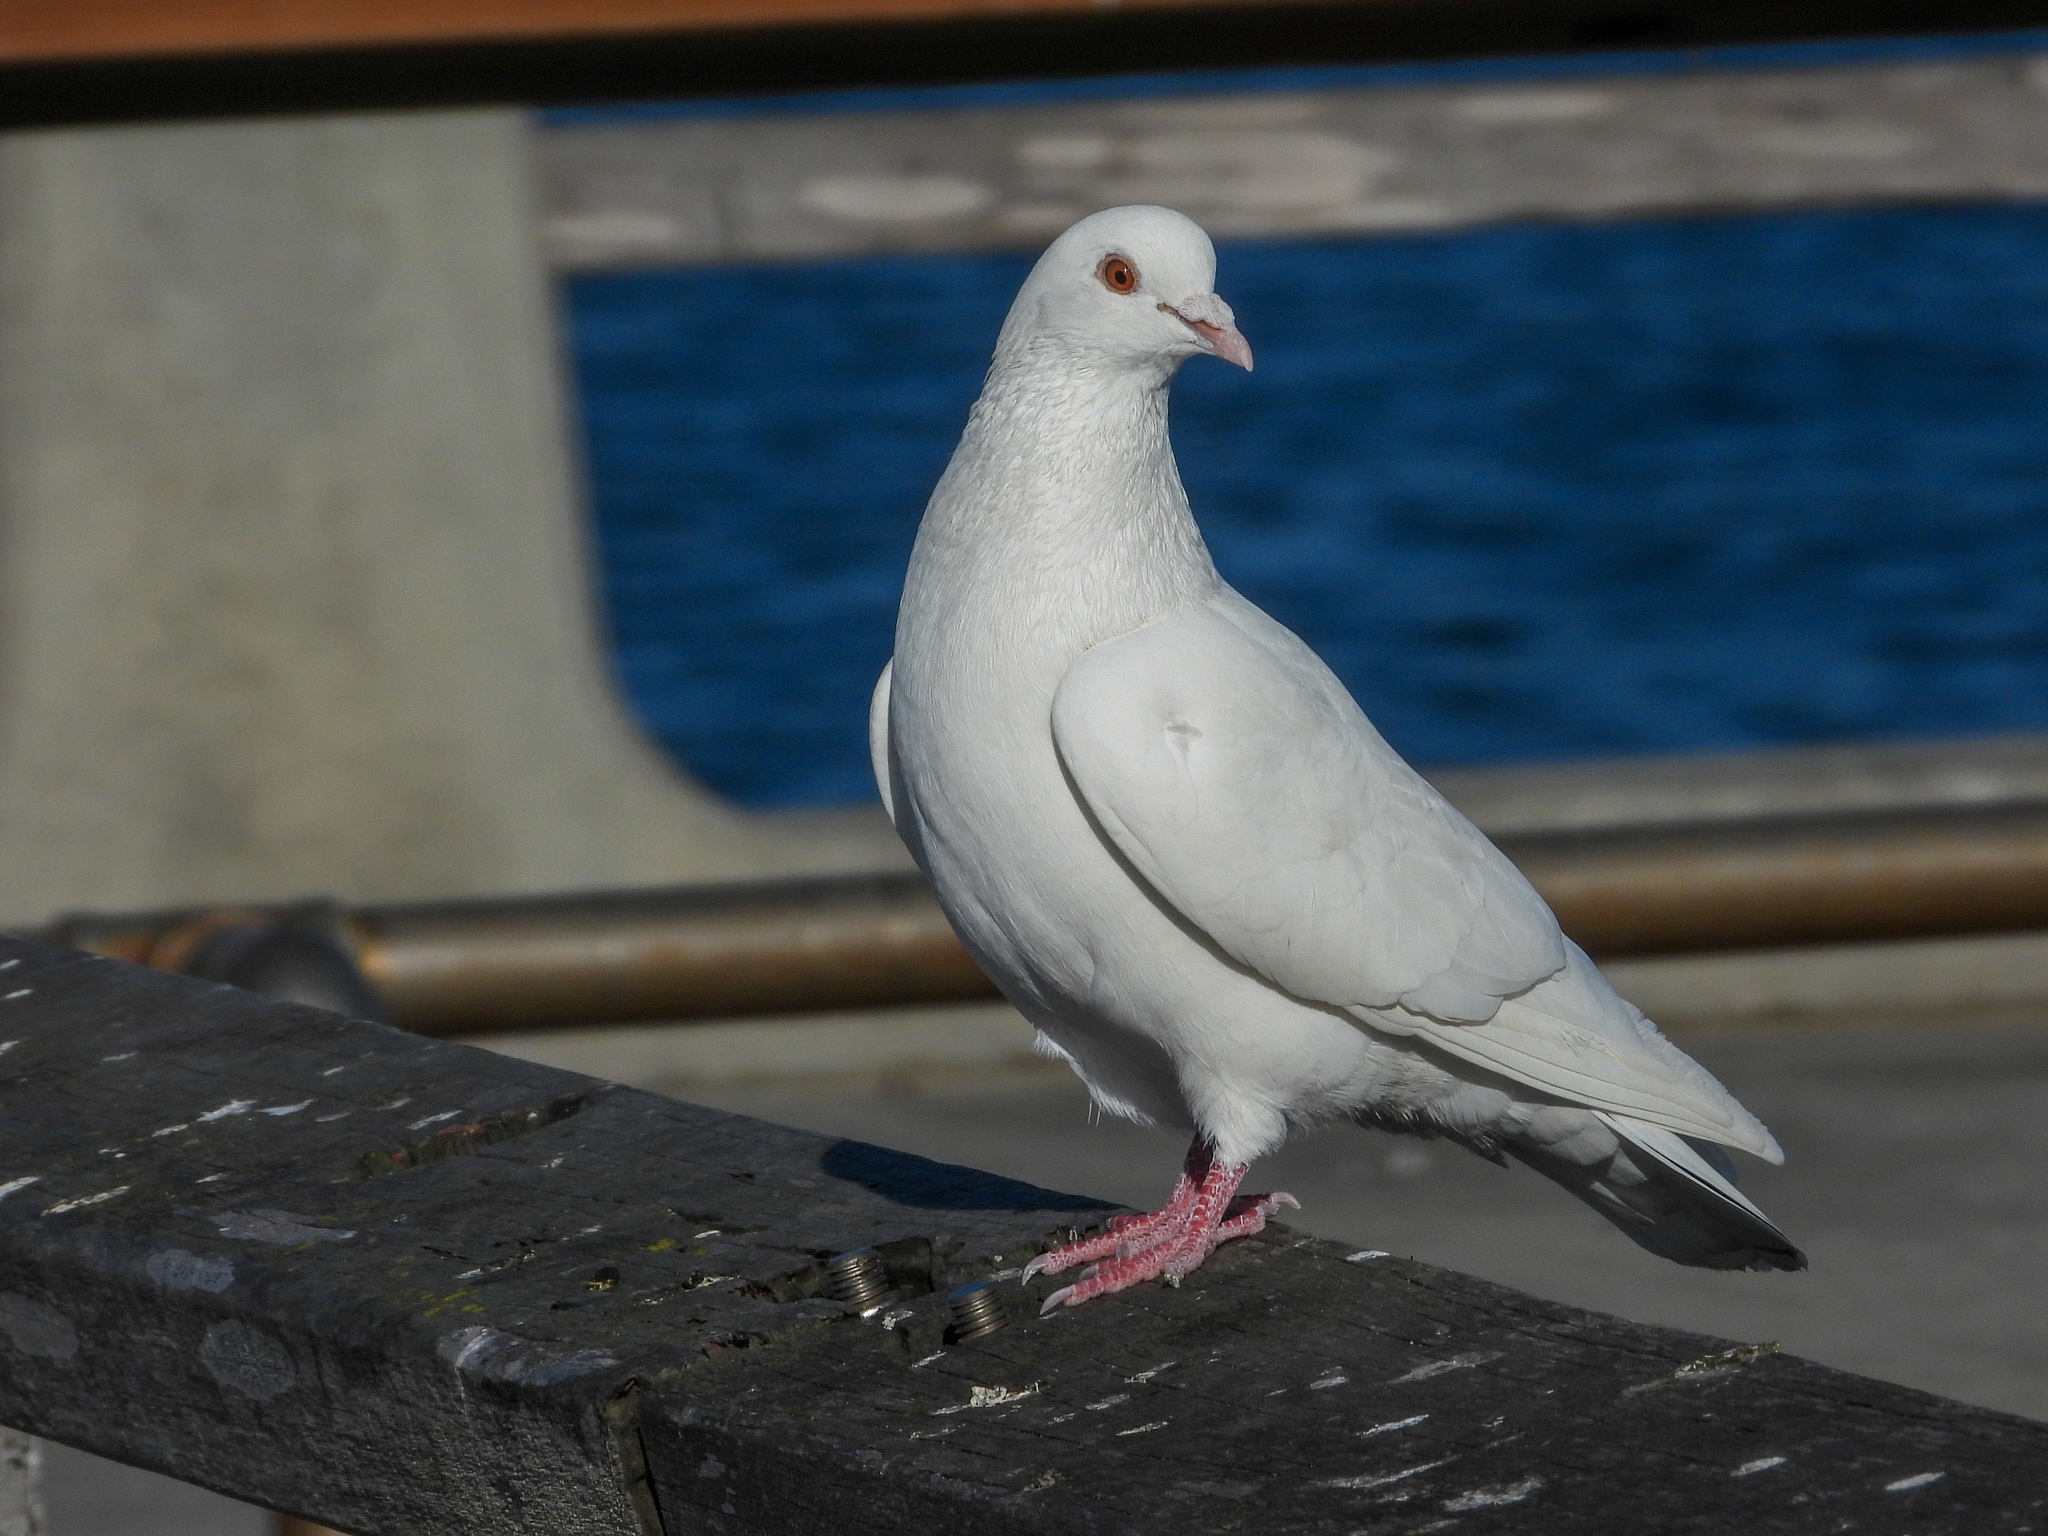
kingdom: Animalia
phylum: Chordata
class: Aves
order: Columbiformes
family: Columbidae
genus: Columba
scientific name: Columba livia
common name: Rock pigeon
